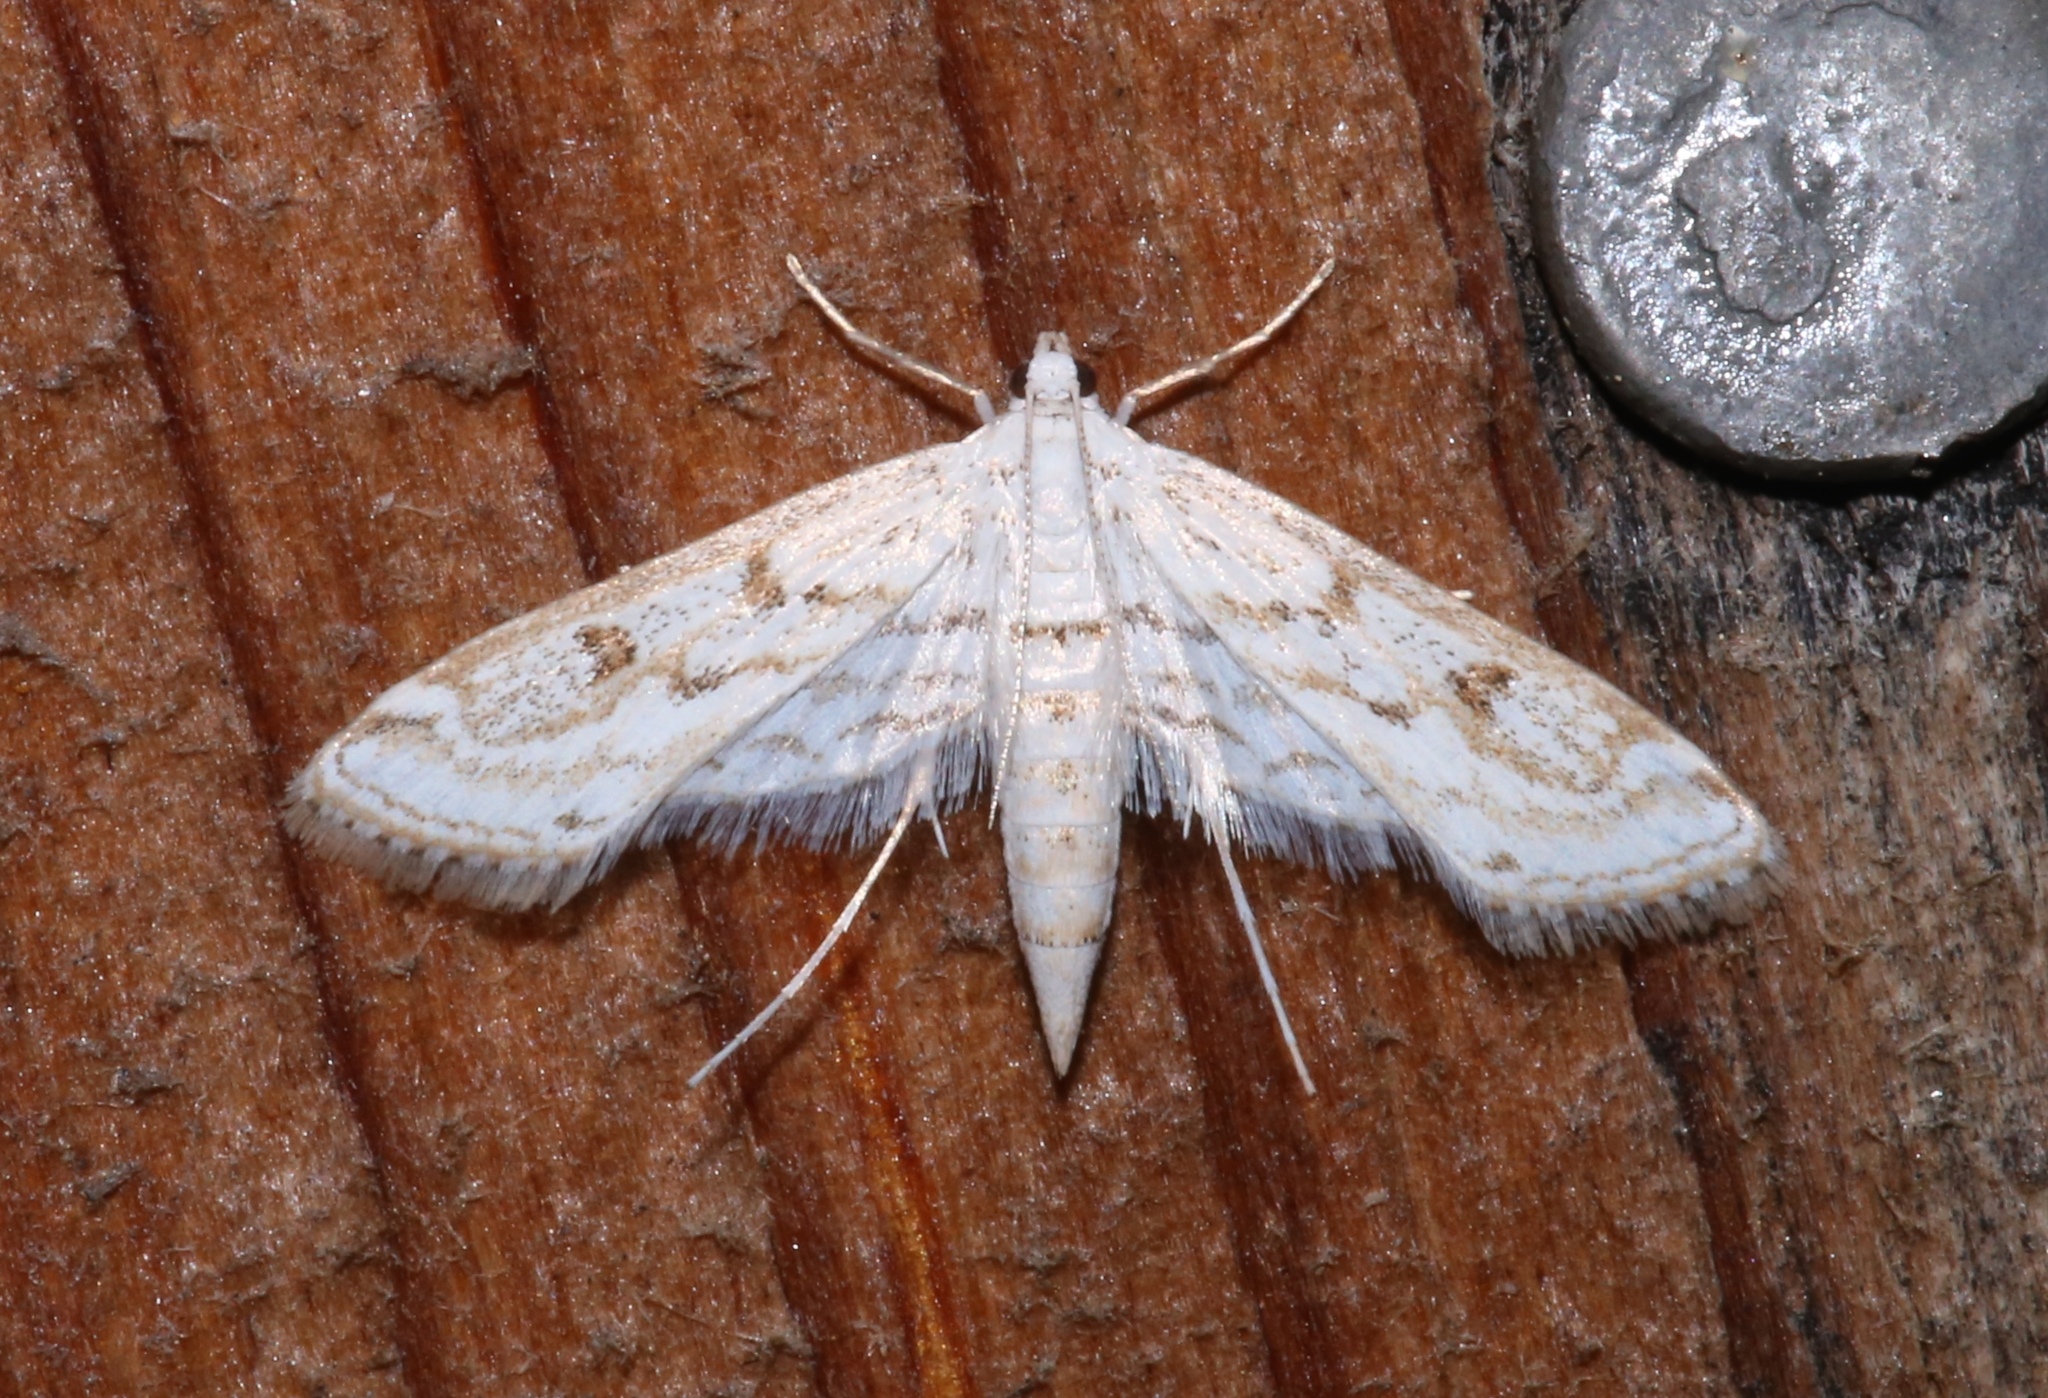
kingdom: Animalia
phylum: Arthropoda
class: Insecta
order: Lepidoptera
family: Crambidae
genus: Parapoynx
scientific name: Parapoynx allionealis
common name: Bladderwort casemaker
